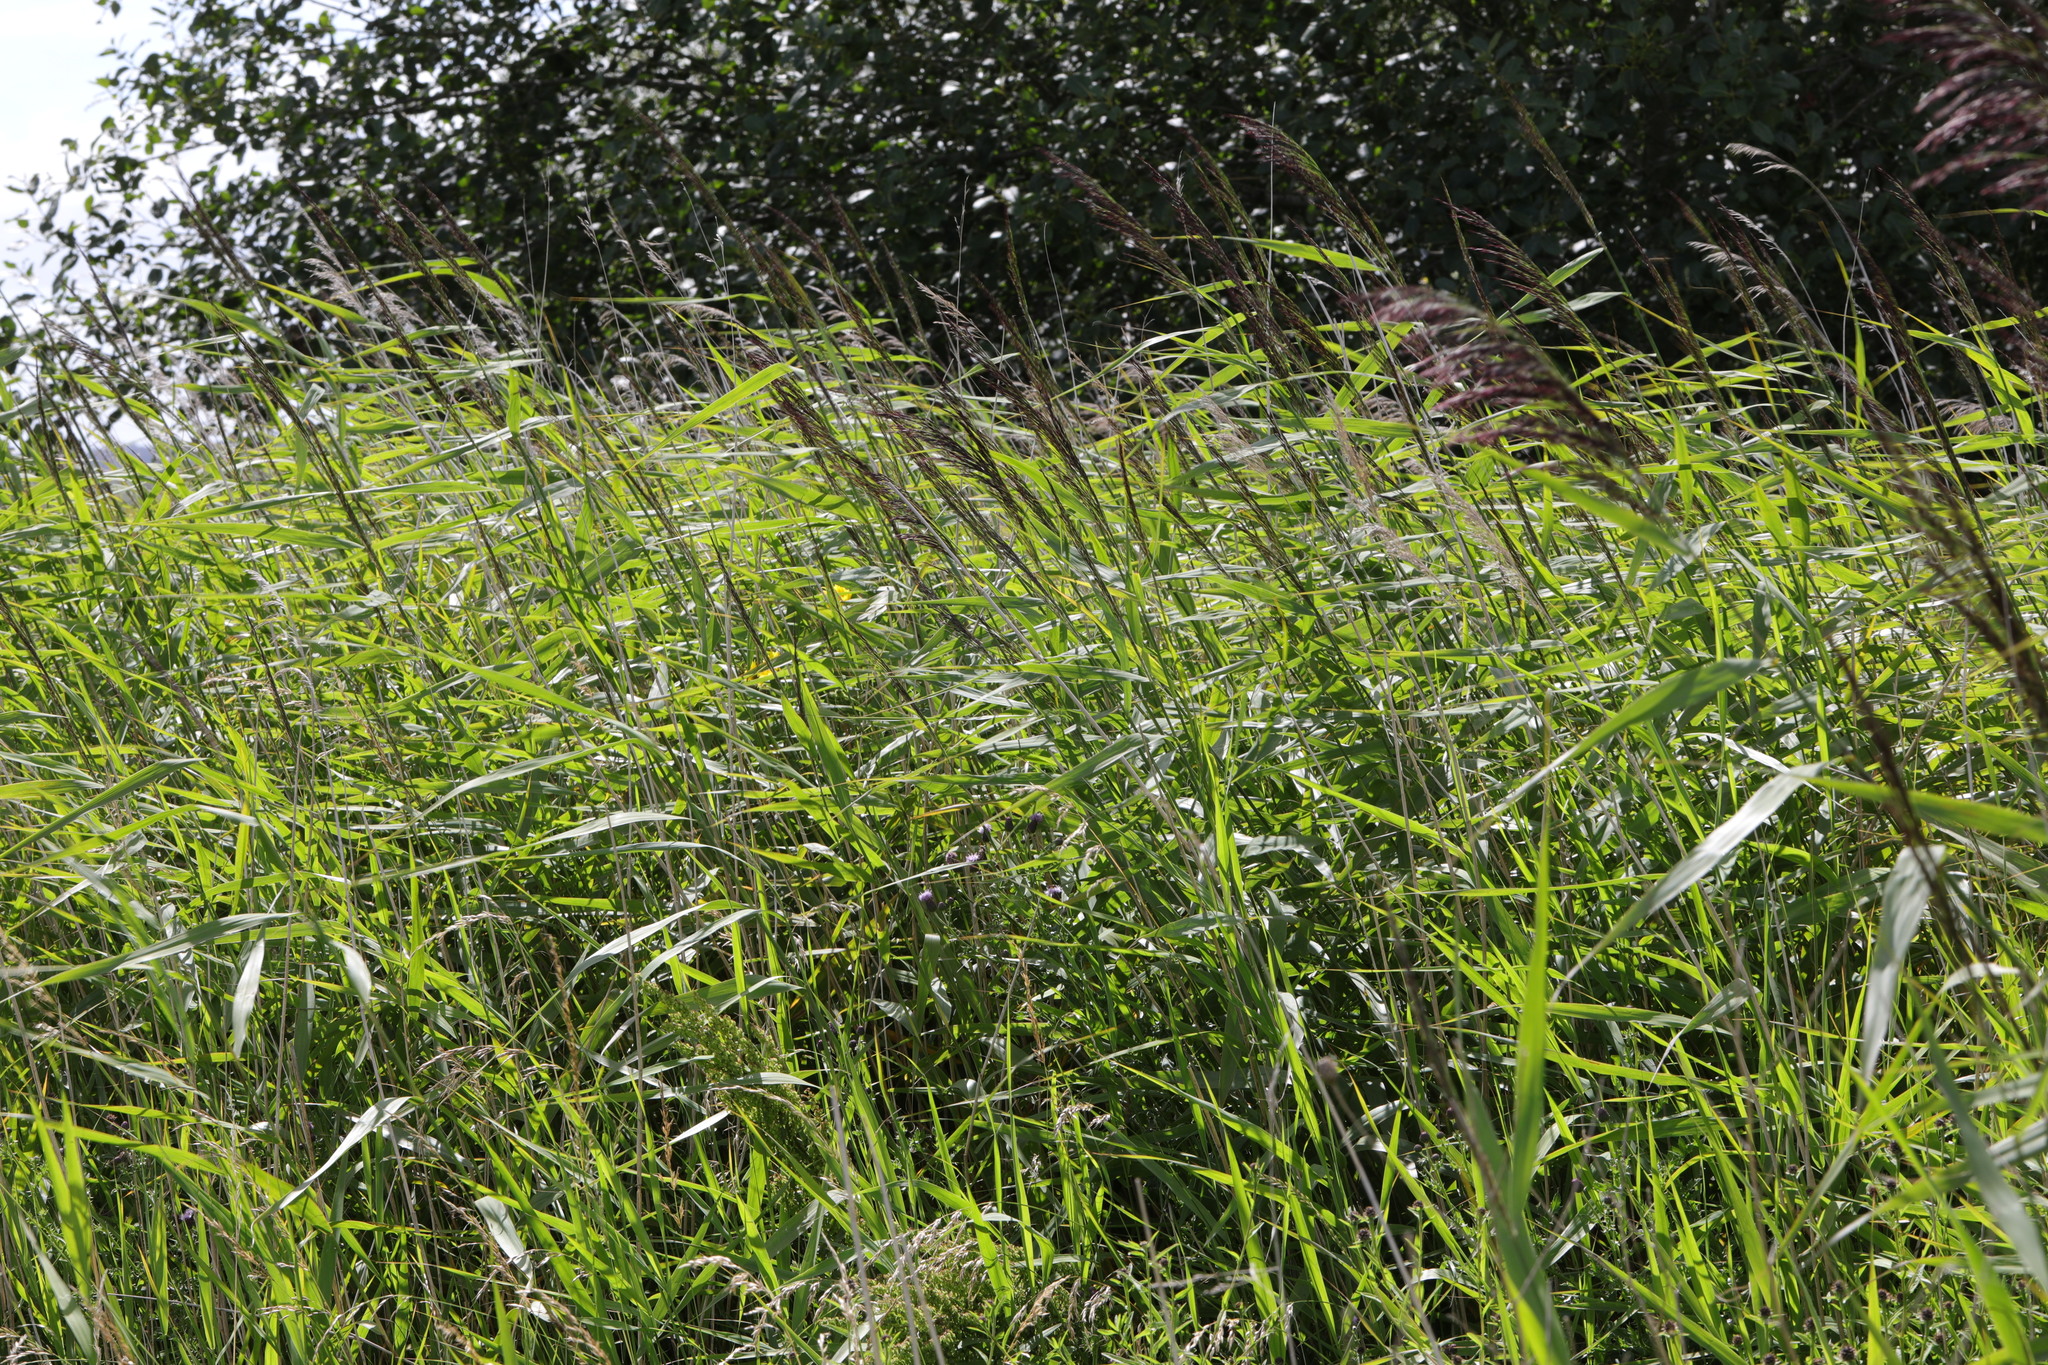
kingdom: Plantae
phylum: Tracheophyta
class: Liliopsida
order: Poales
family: Poaceae
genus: Phragmites
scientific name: Phragmites australis
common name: Common reed
